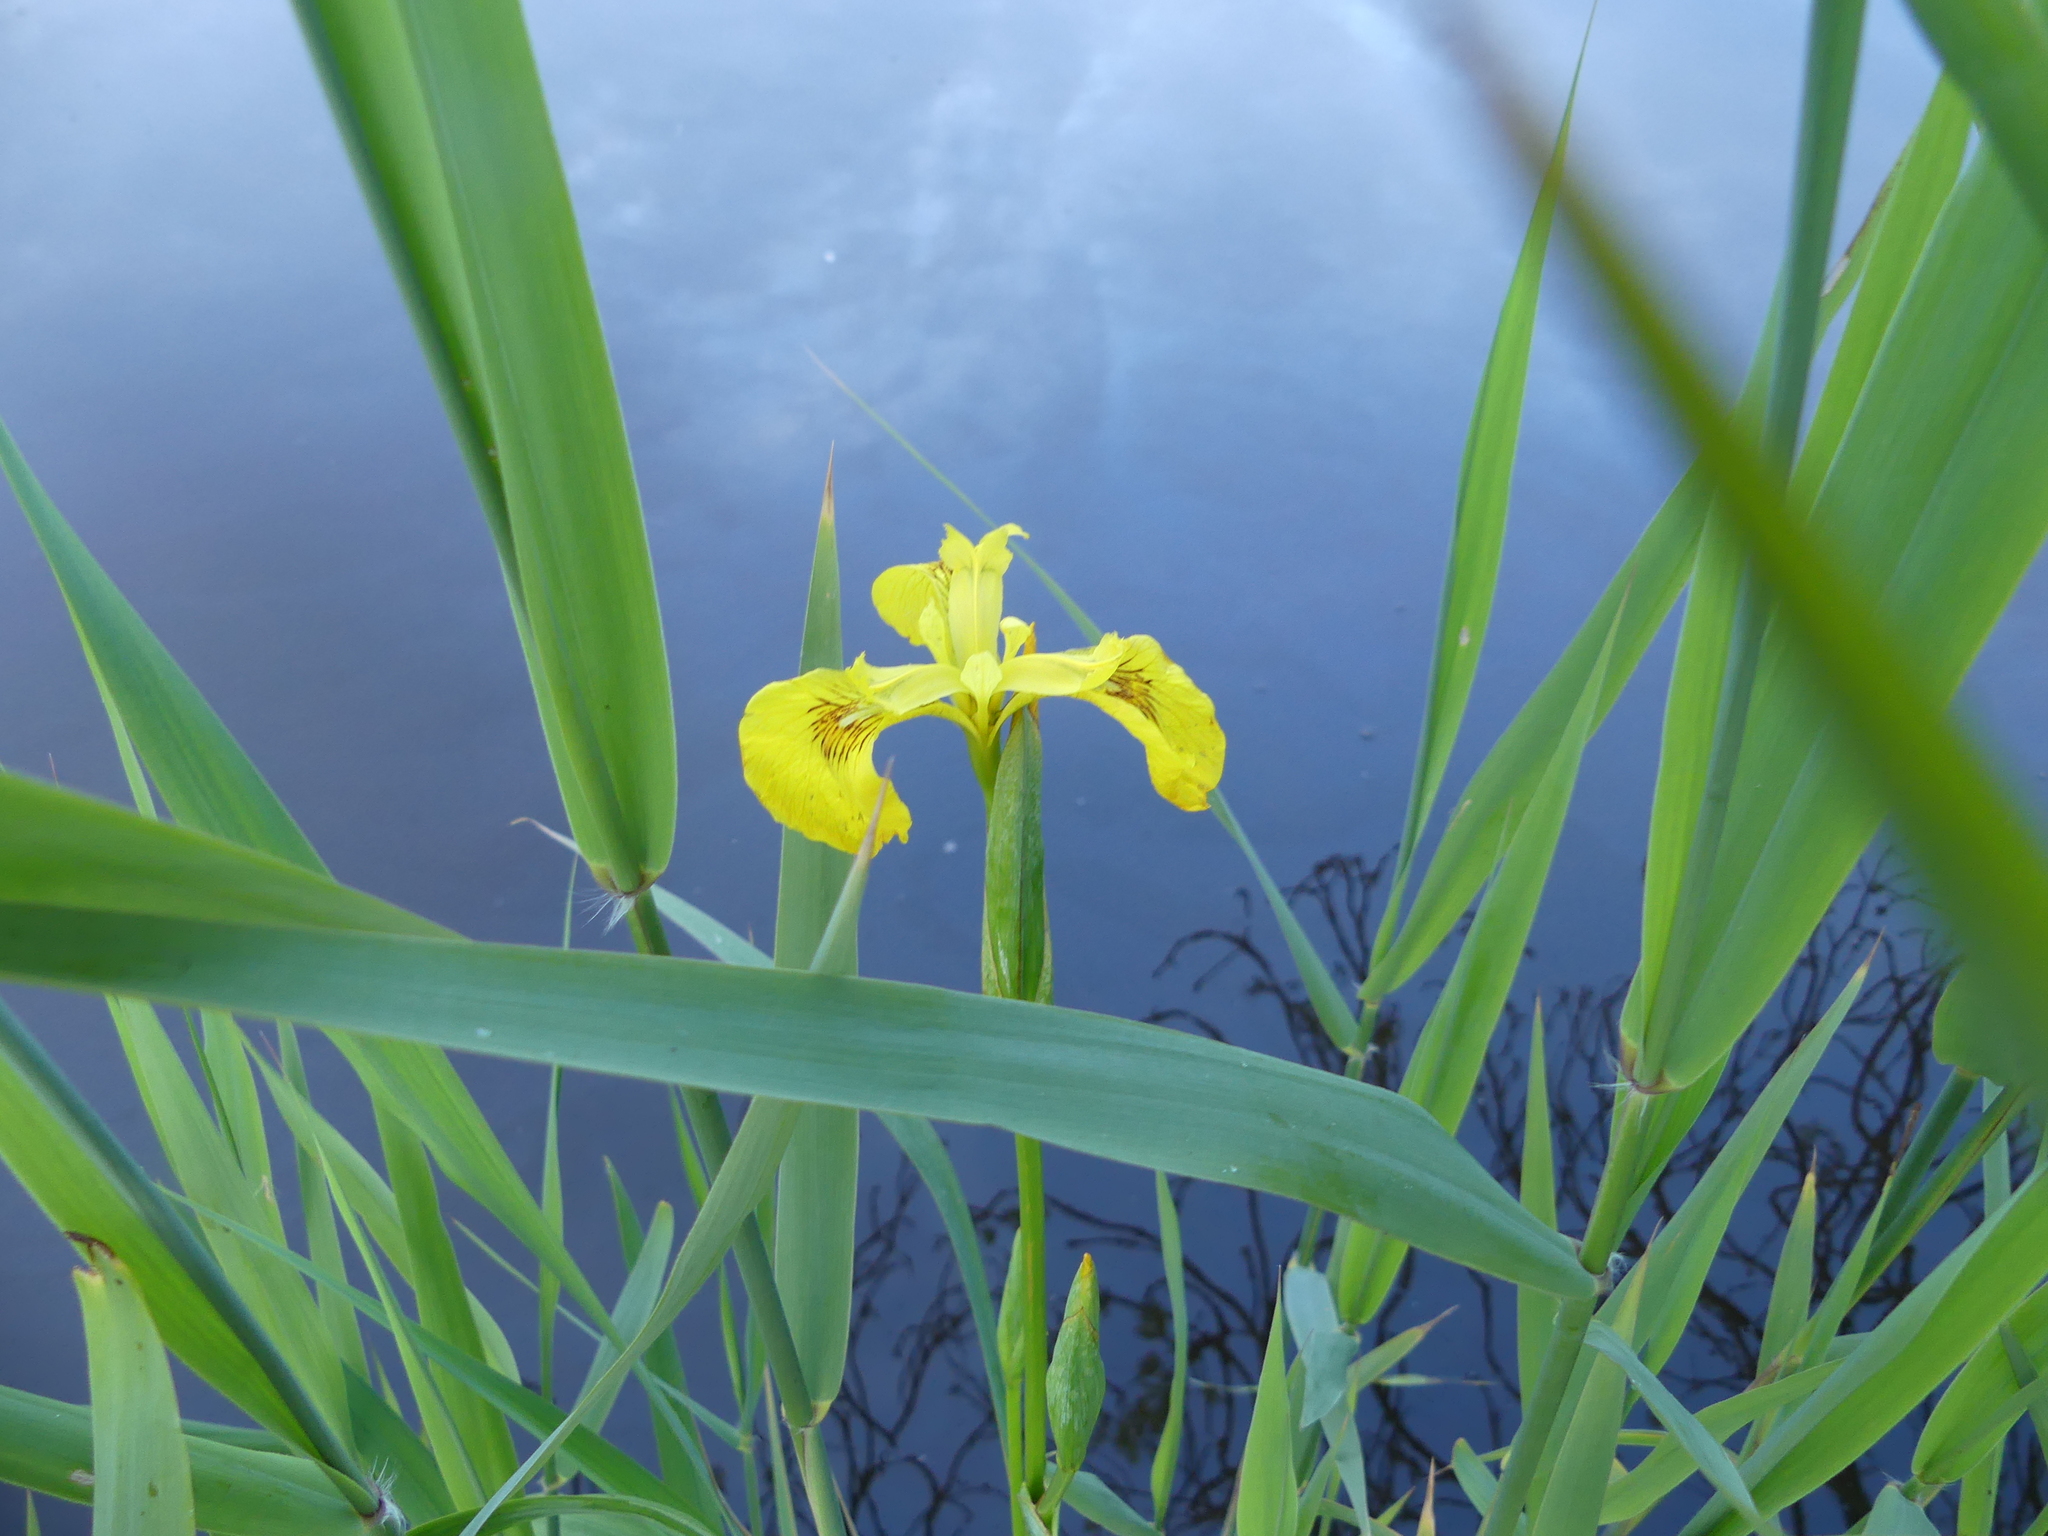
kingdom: Plantae
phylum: Tracheophyta
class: Liliopsida
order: Asparagales
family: Iridaceae
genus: Iris
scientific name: Iris pseudacorus
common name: Yellow flag
